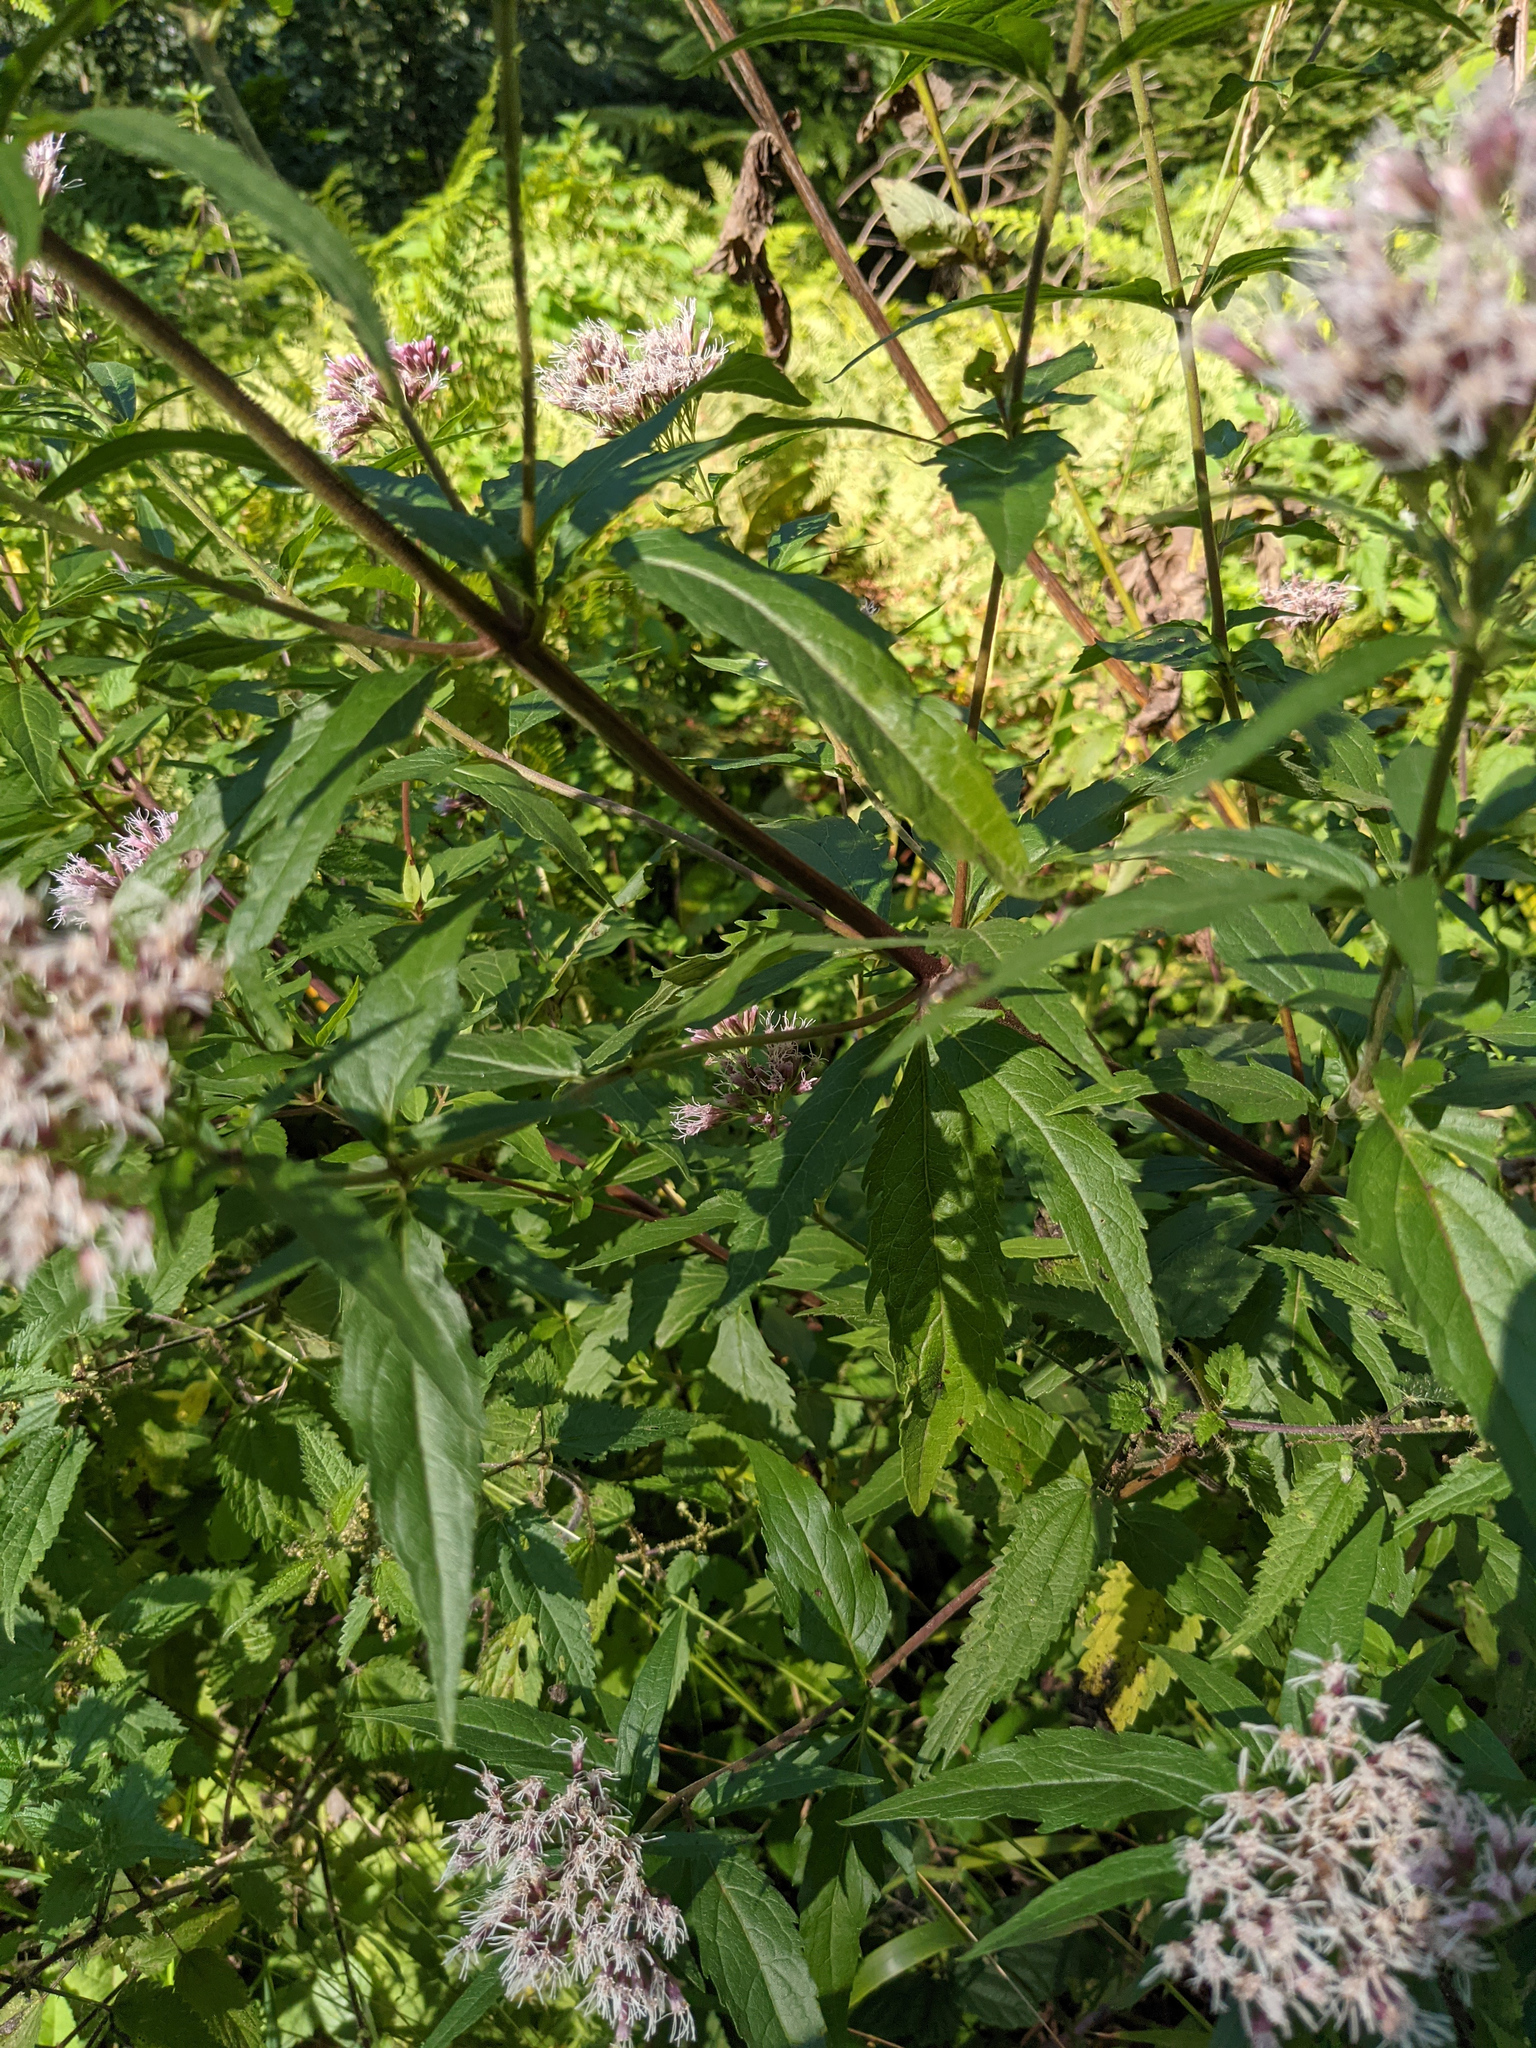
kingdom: Plantae
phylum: Tracheophyta
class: Magnoliopsida
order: Asterales
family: Asteraceae
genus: Eupatorium
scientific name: Eupatorium cannabinum
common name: Hemp-agrimony
